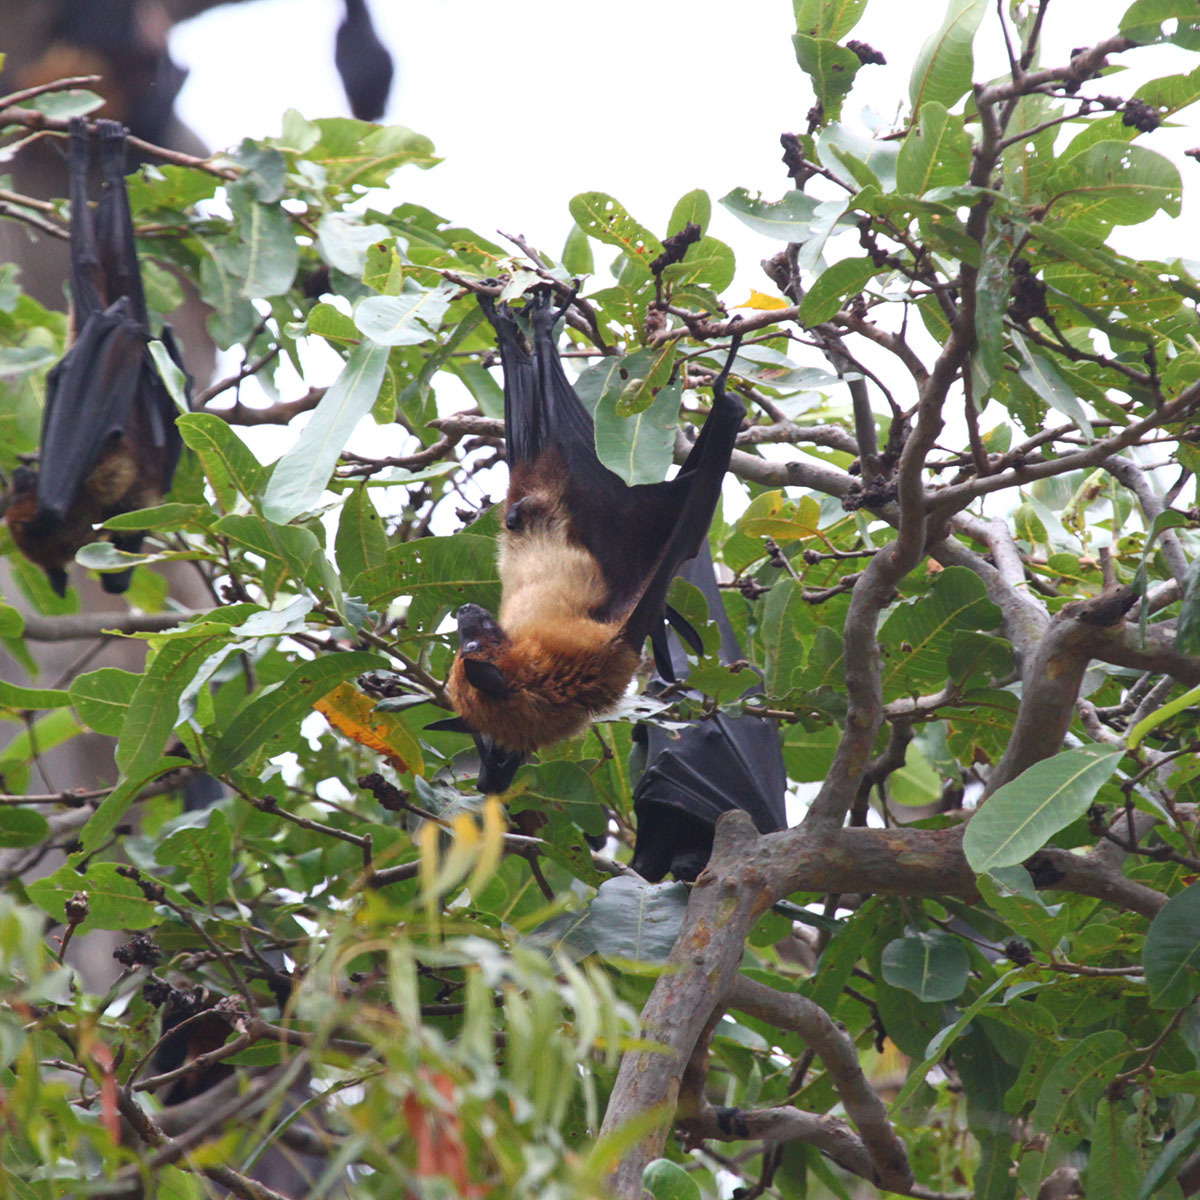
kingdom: Animalia
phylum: Chordata
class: Mammalia
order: Chiroptera
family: Pteropodidae
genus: Pteropus
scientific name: Pteropus vampyrus
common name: Large flying fox
